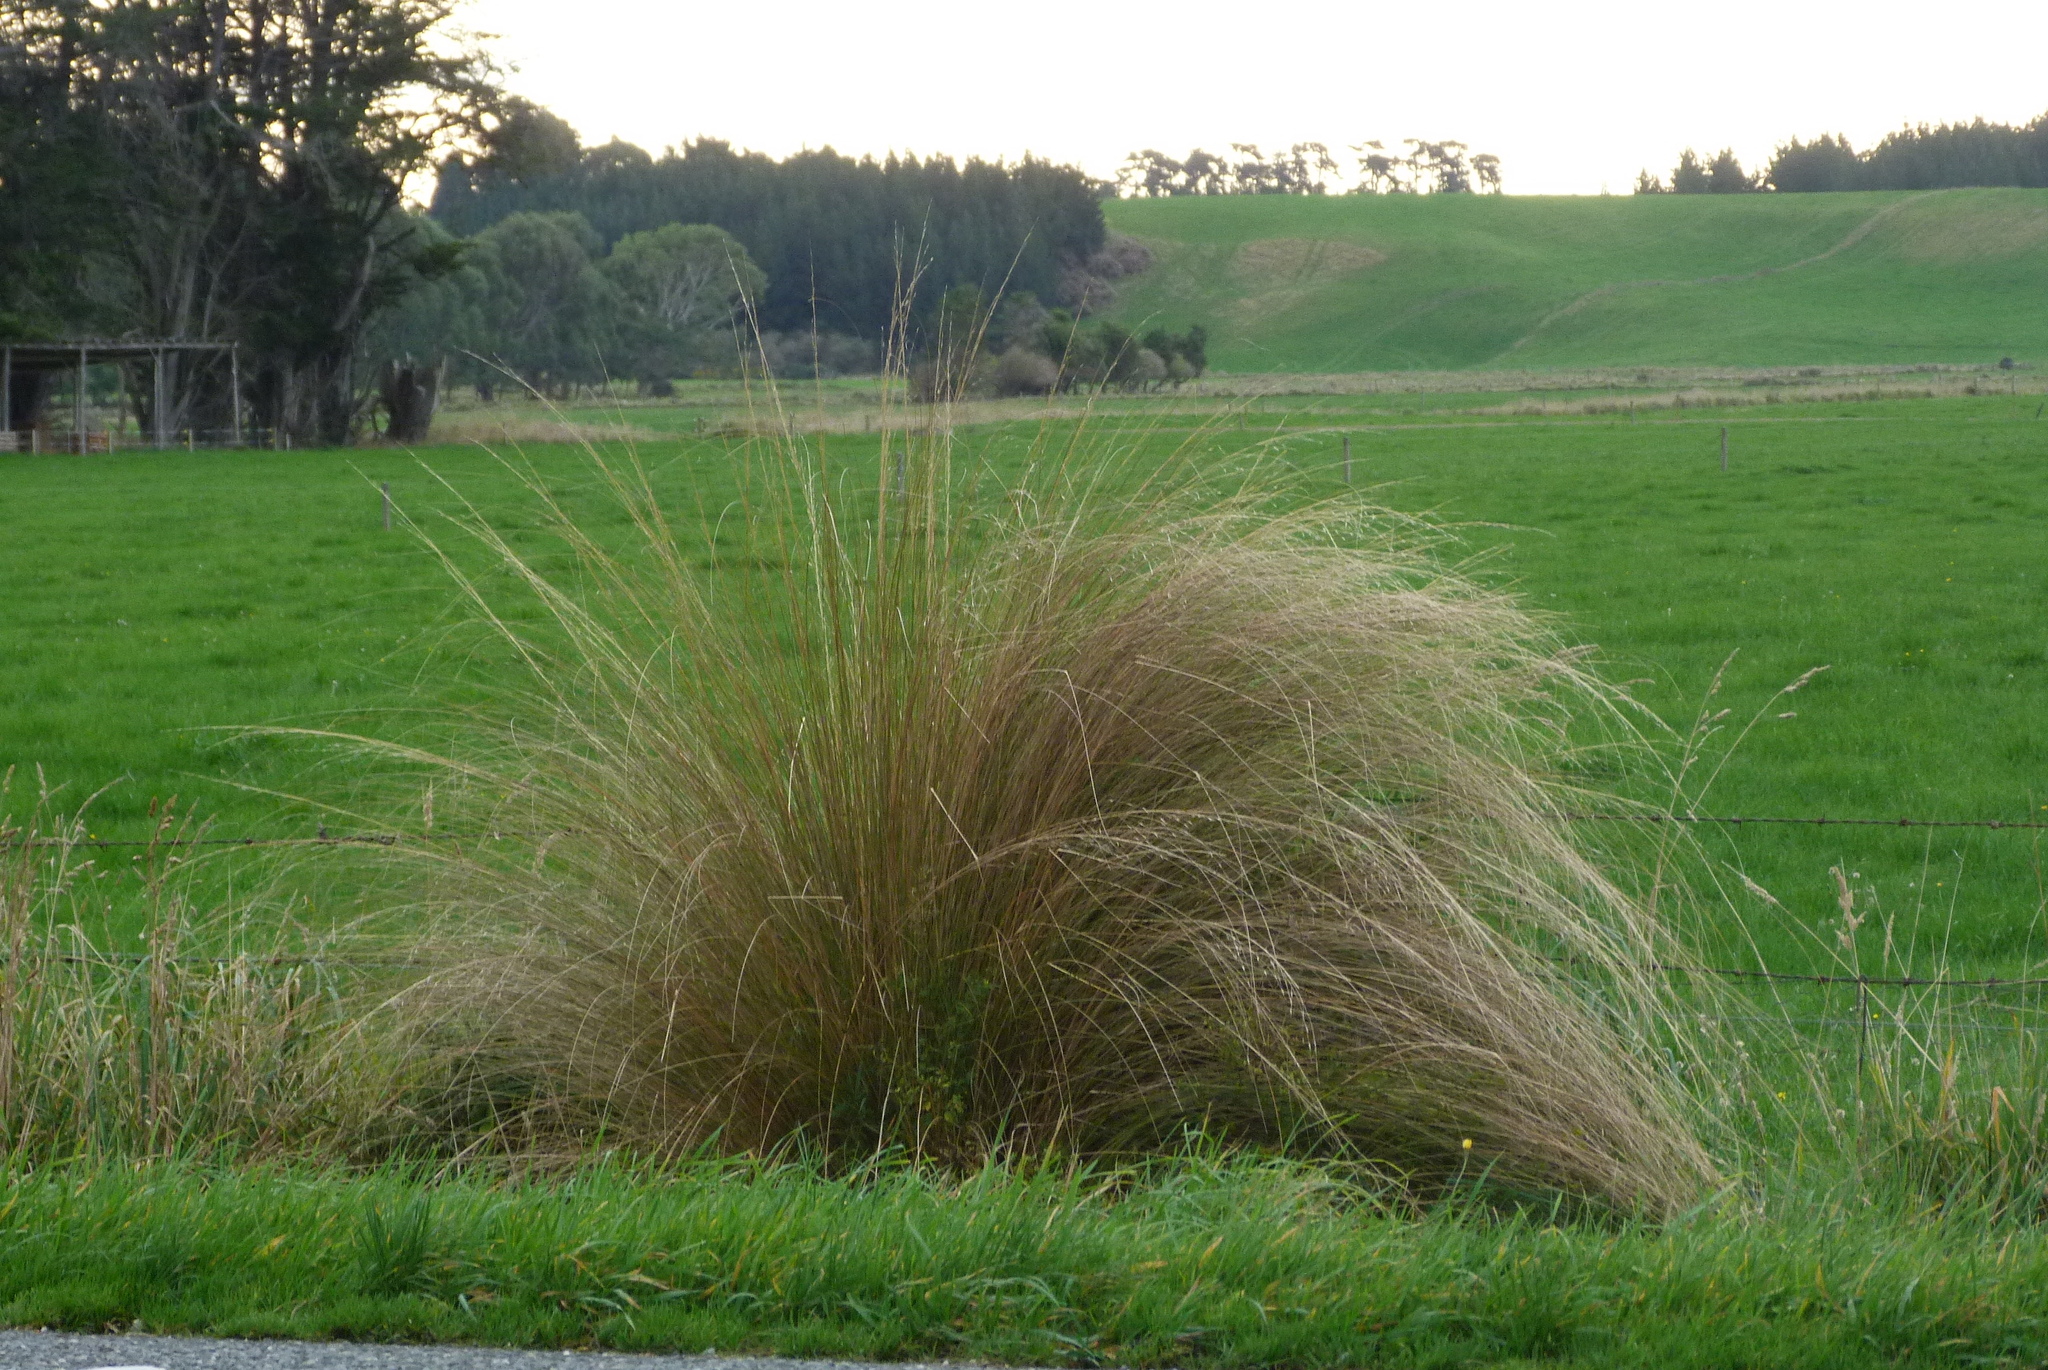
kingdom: Plantae
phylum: Tracheophyta
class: Liliopsida
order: Poales
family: Poaceae
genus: Chionochloa
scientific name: Chionochloa rubra
